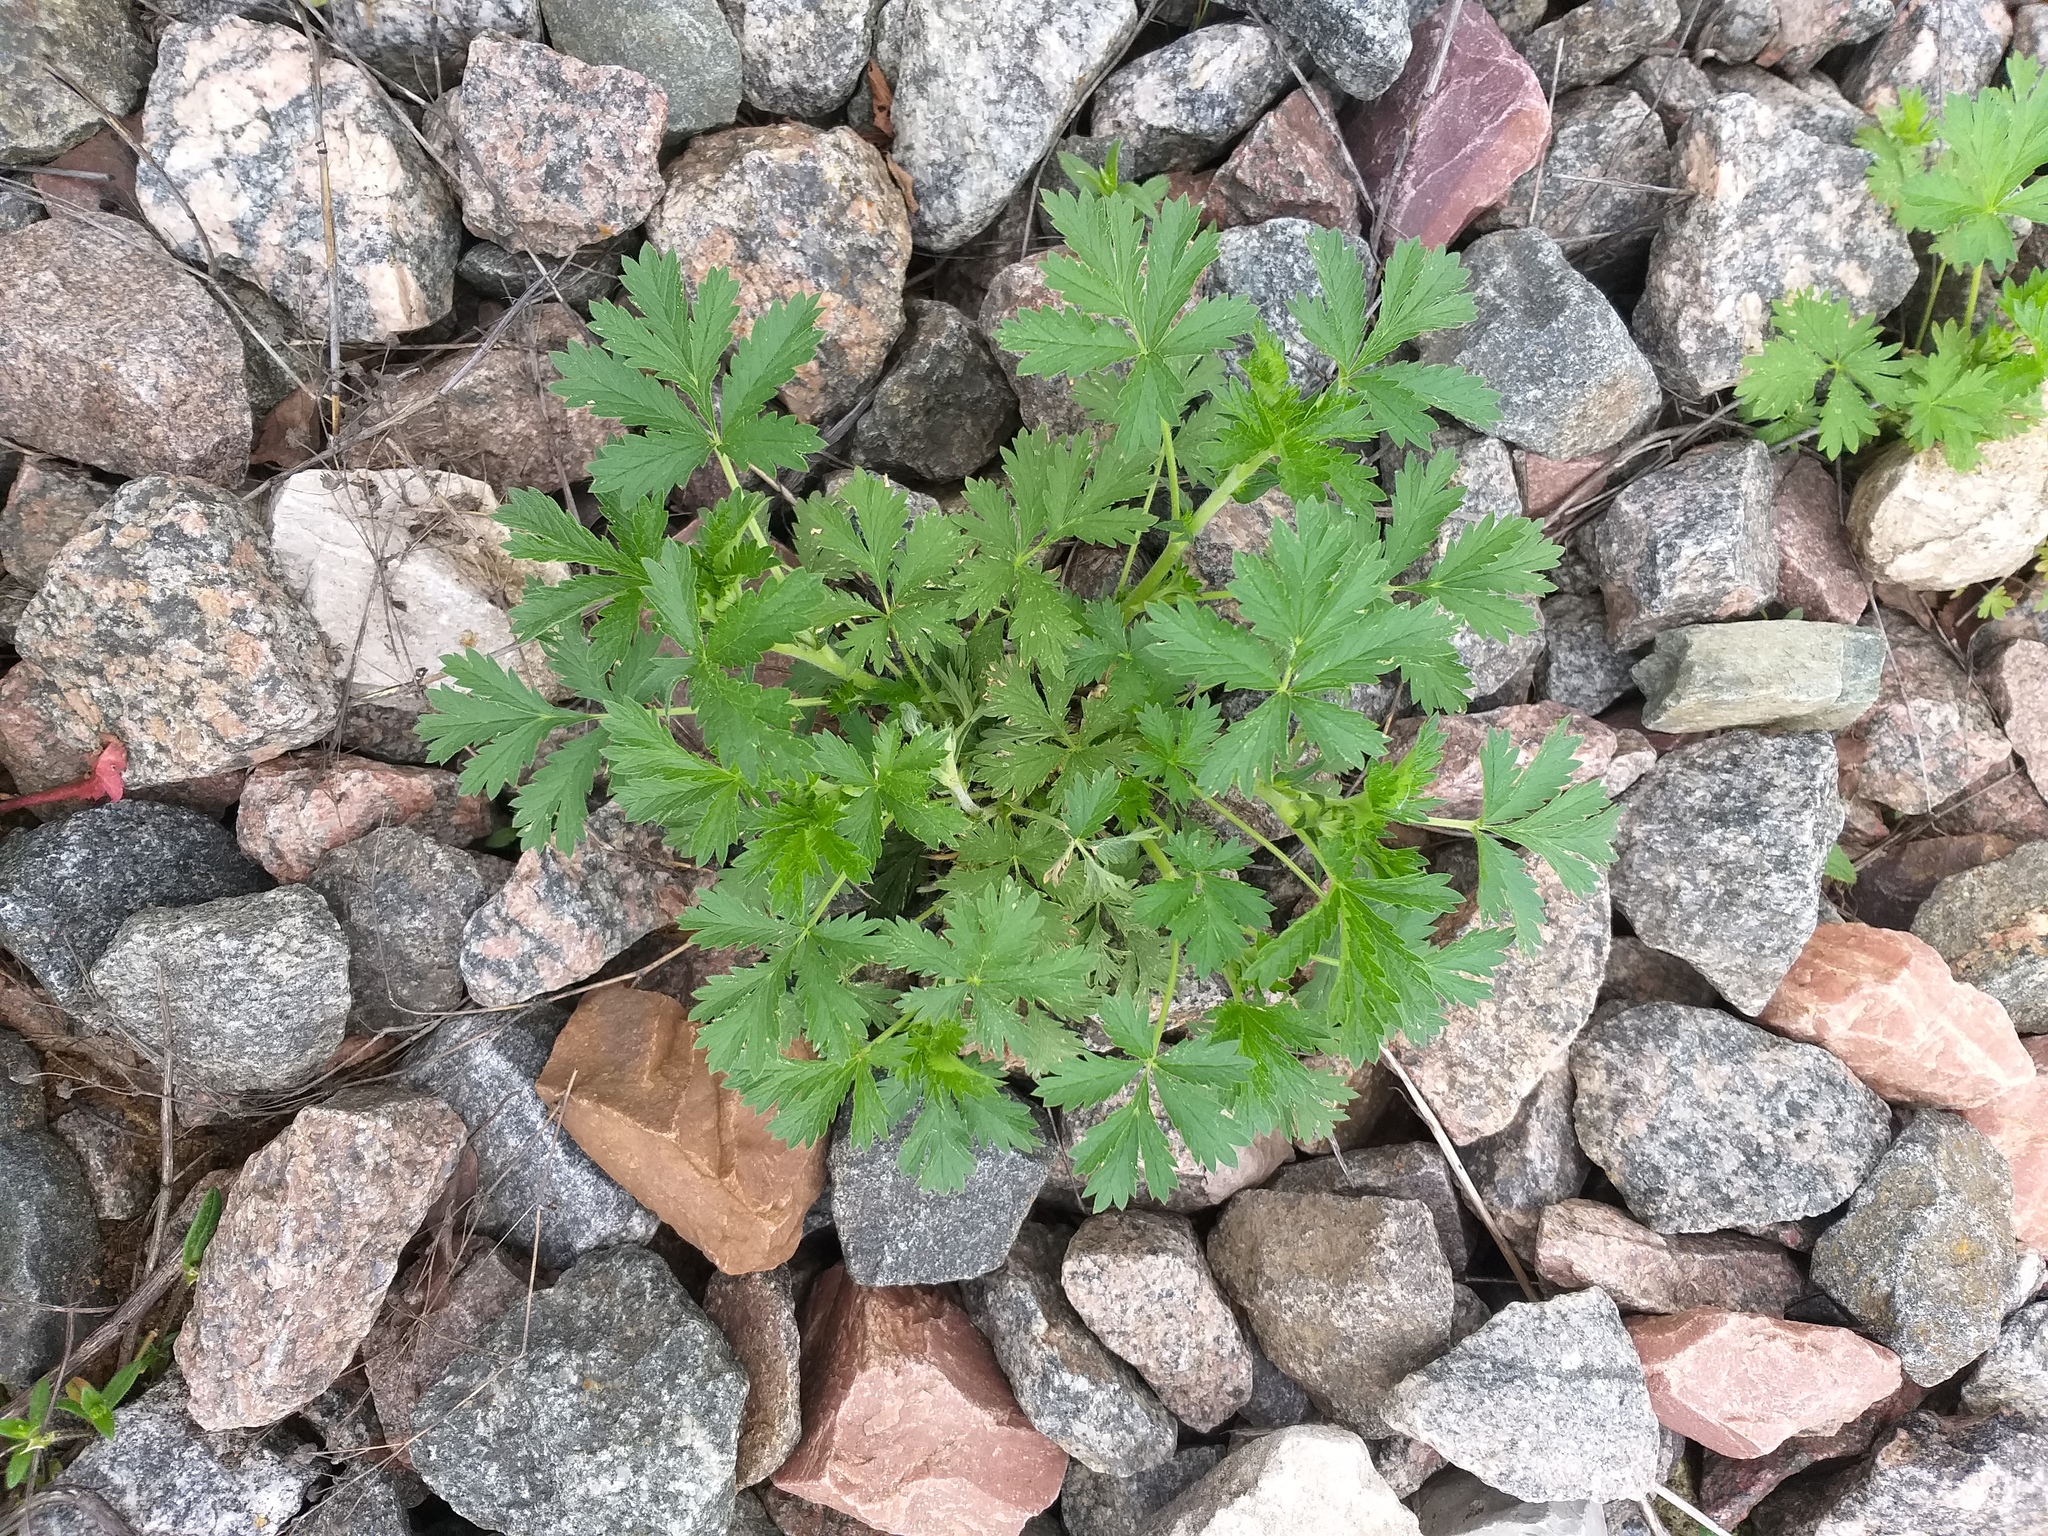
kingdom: Plantae
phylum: Tracheophyta
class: Magnoliopsida
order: Rosales
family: Rosaceae
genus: Potentilla
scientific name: Potentilla intermedia
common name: Downy cinquefoil
